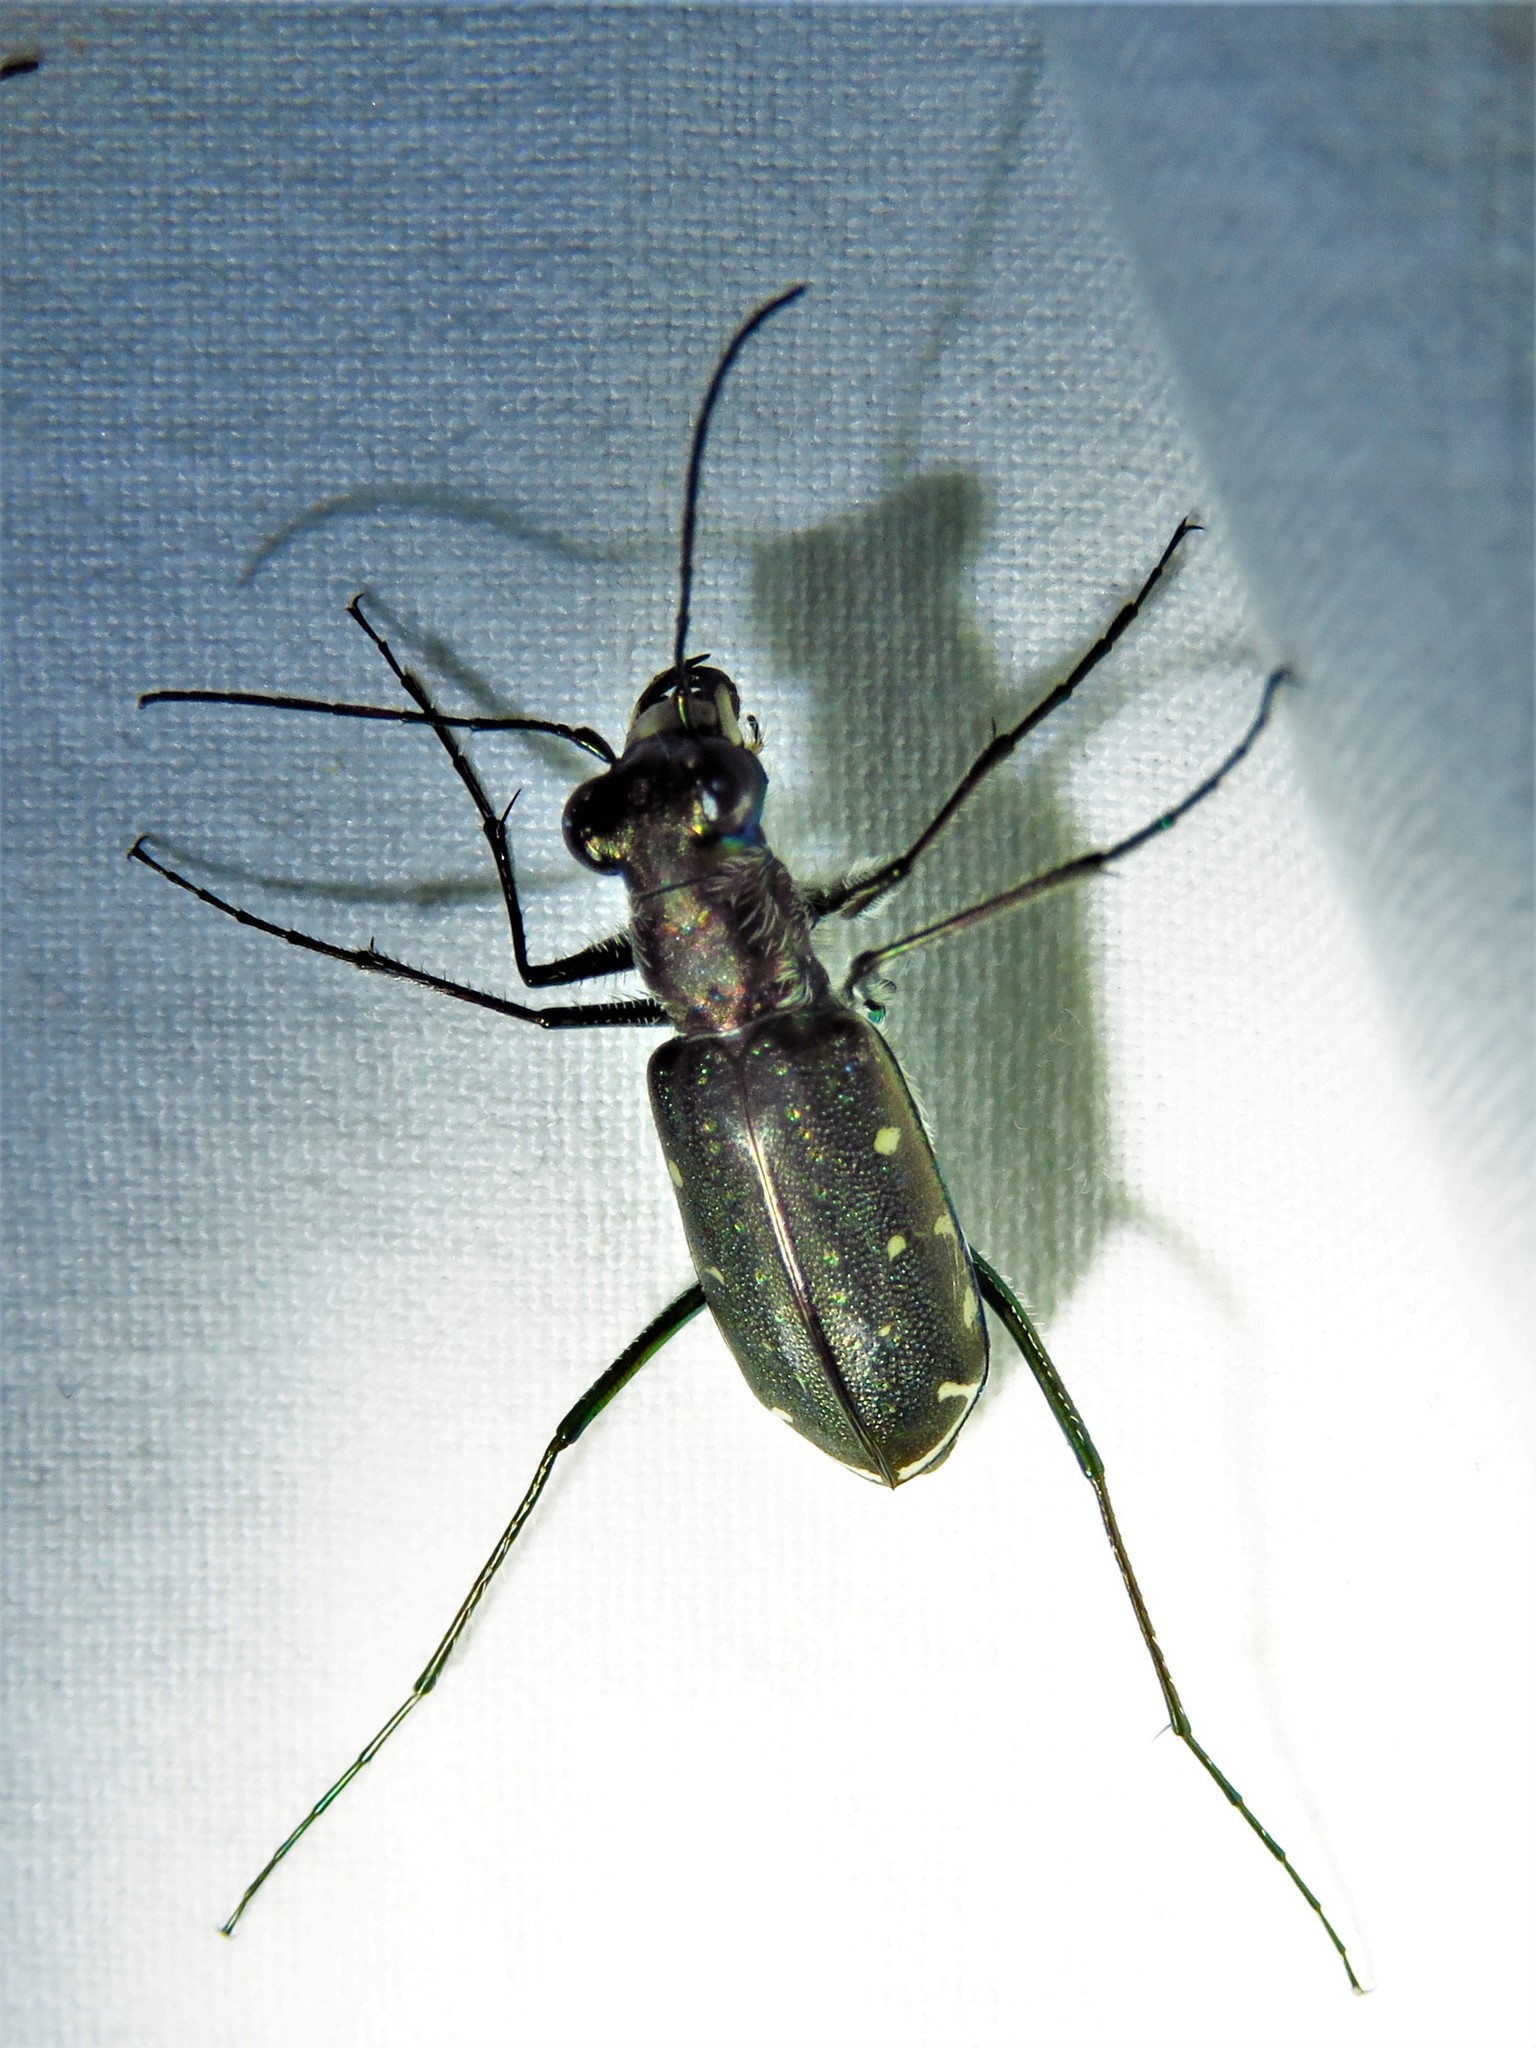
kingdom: Animalia
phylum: Arthropoda
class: Insecta
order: Coleoptera
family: Carabidae
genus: Cicindela
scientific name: Cicindela punctulata
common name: Punctured tiger beetle
